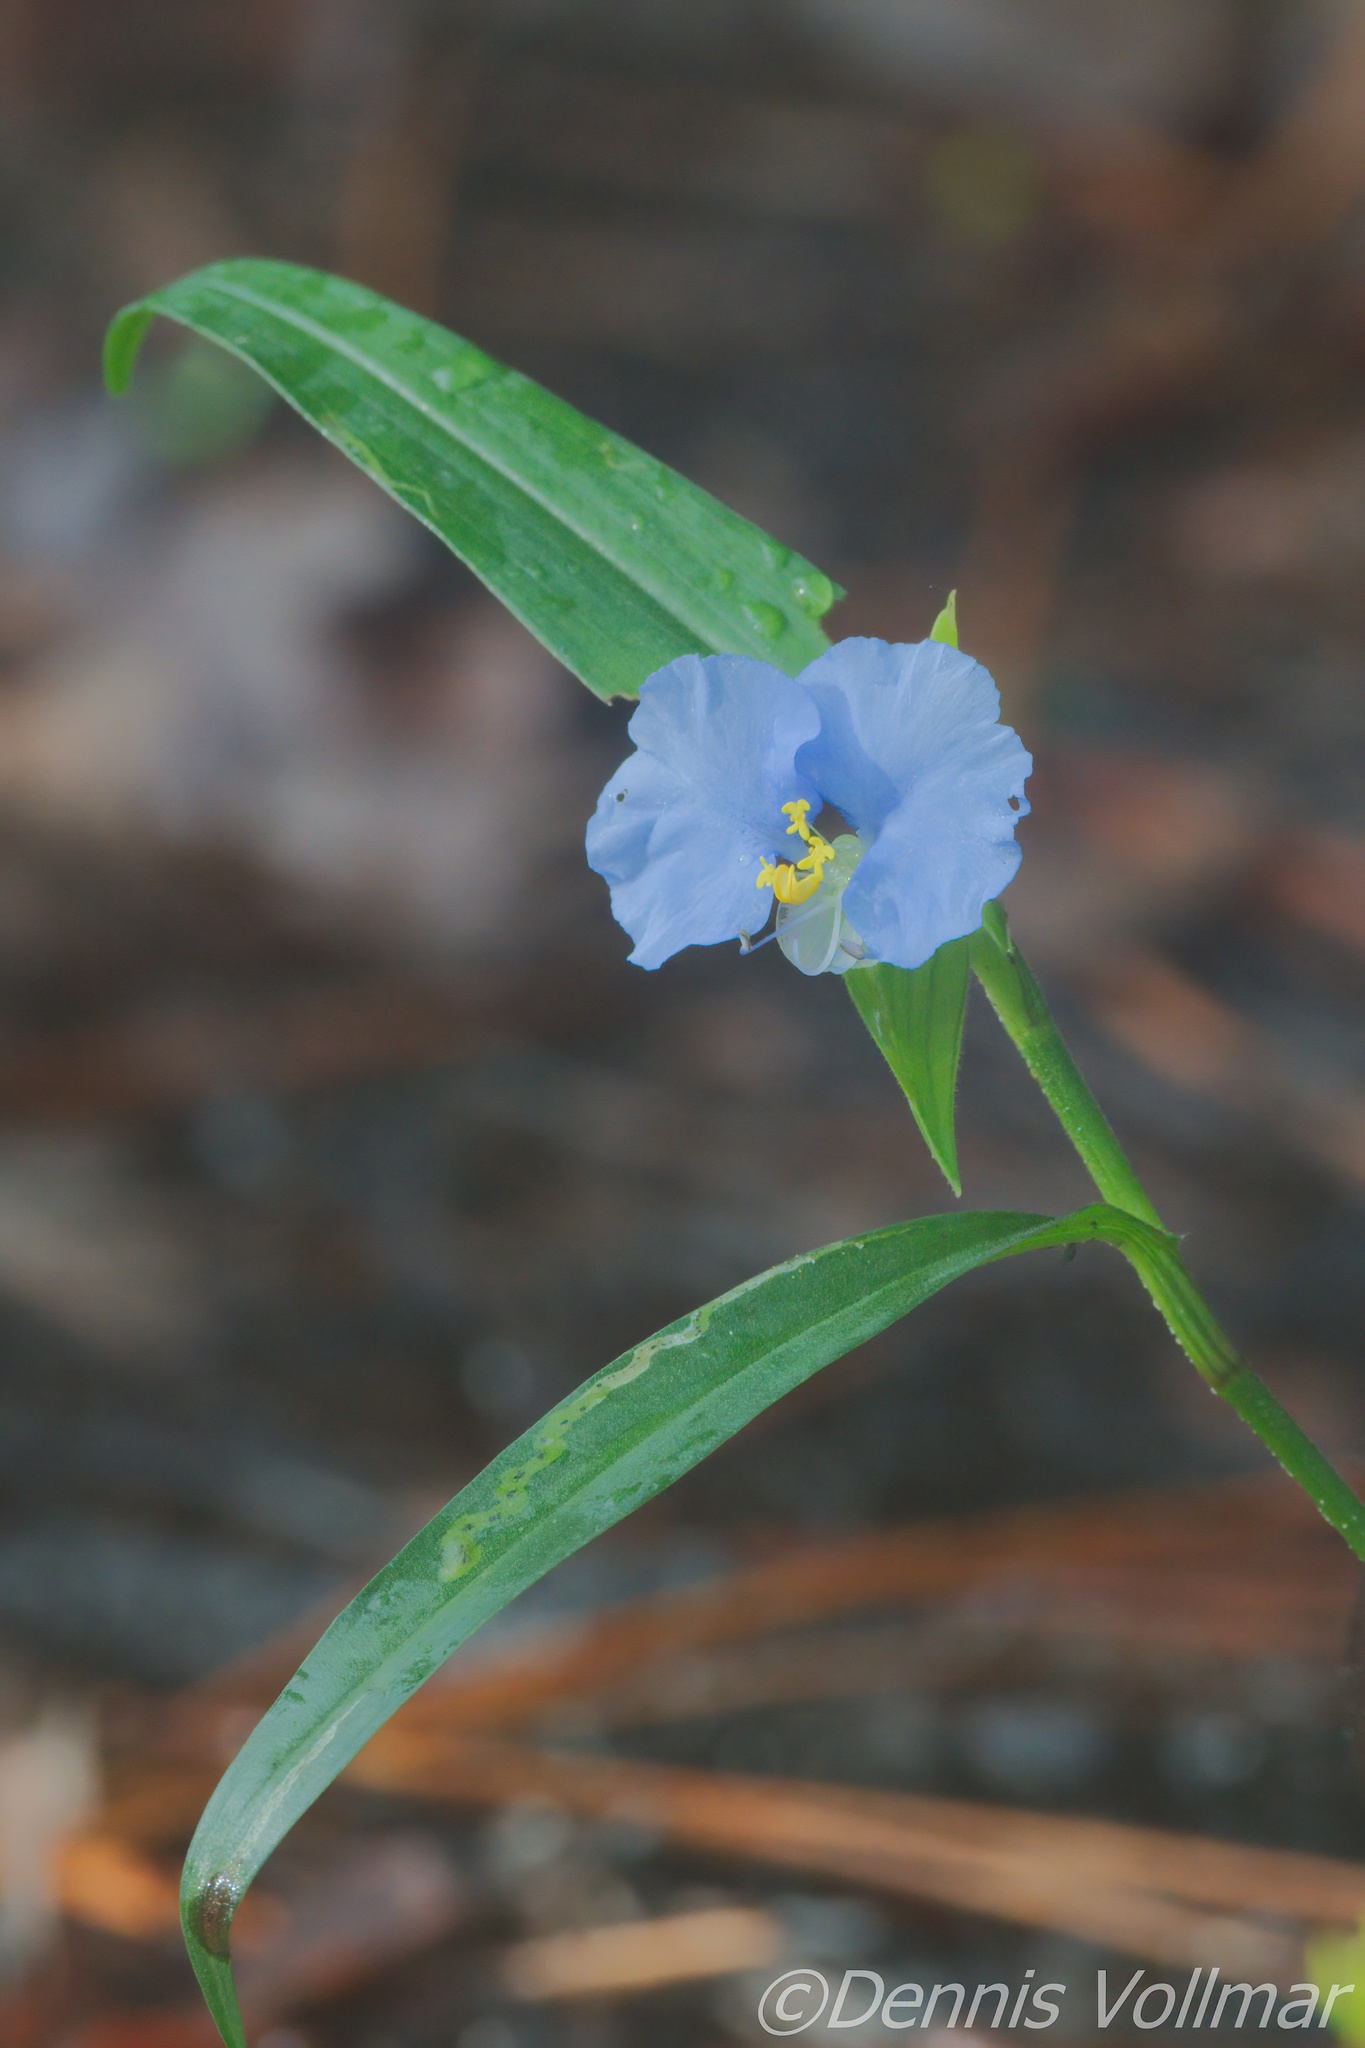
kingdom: Plantae
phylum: Tracheophyta
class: Liliopsida
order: Commelinales
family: Commelinaceae
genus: Commelina
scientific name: Commelina erecta
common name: Blousel blommetjie
